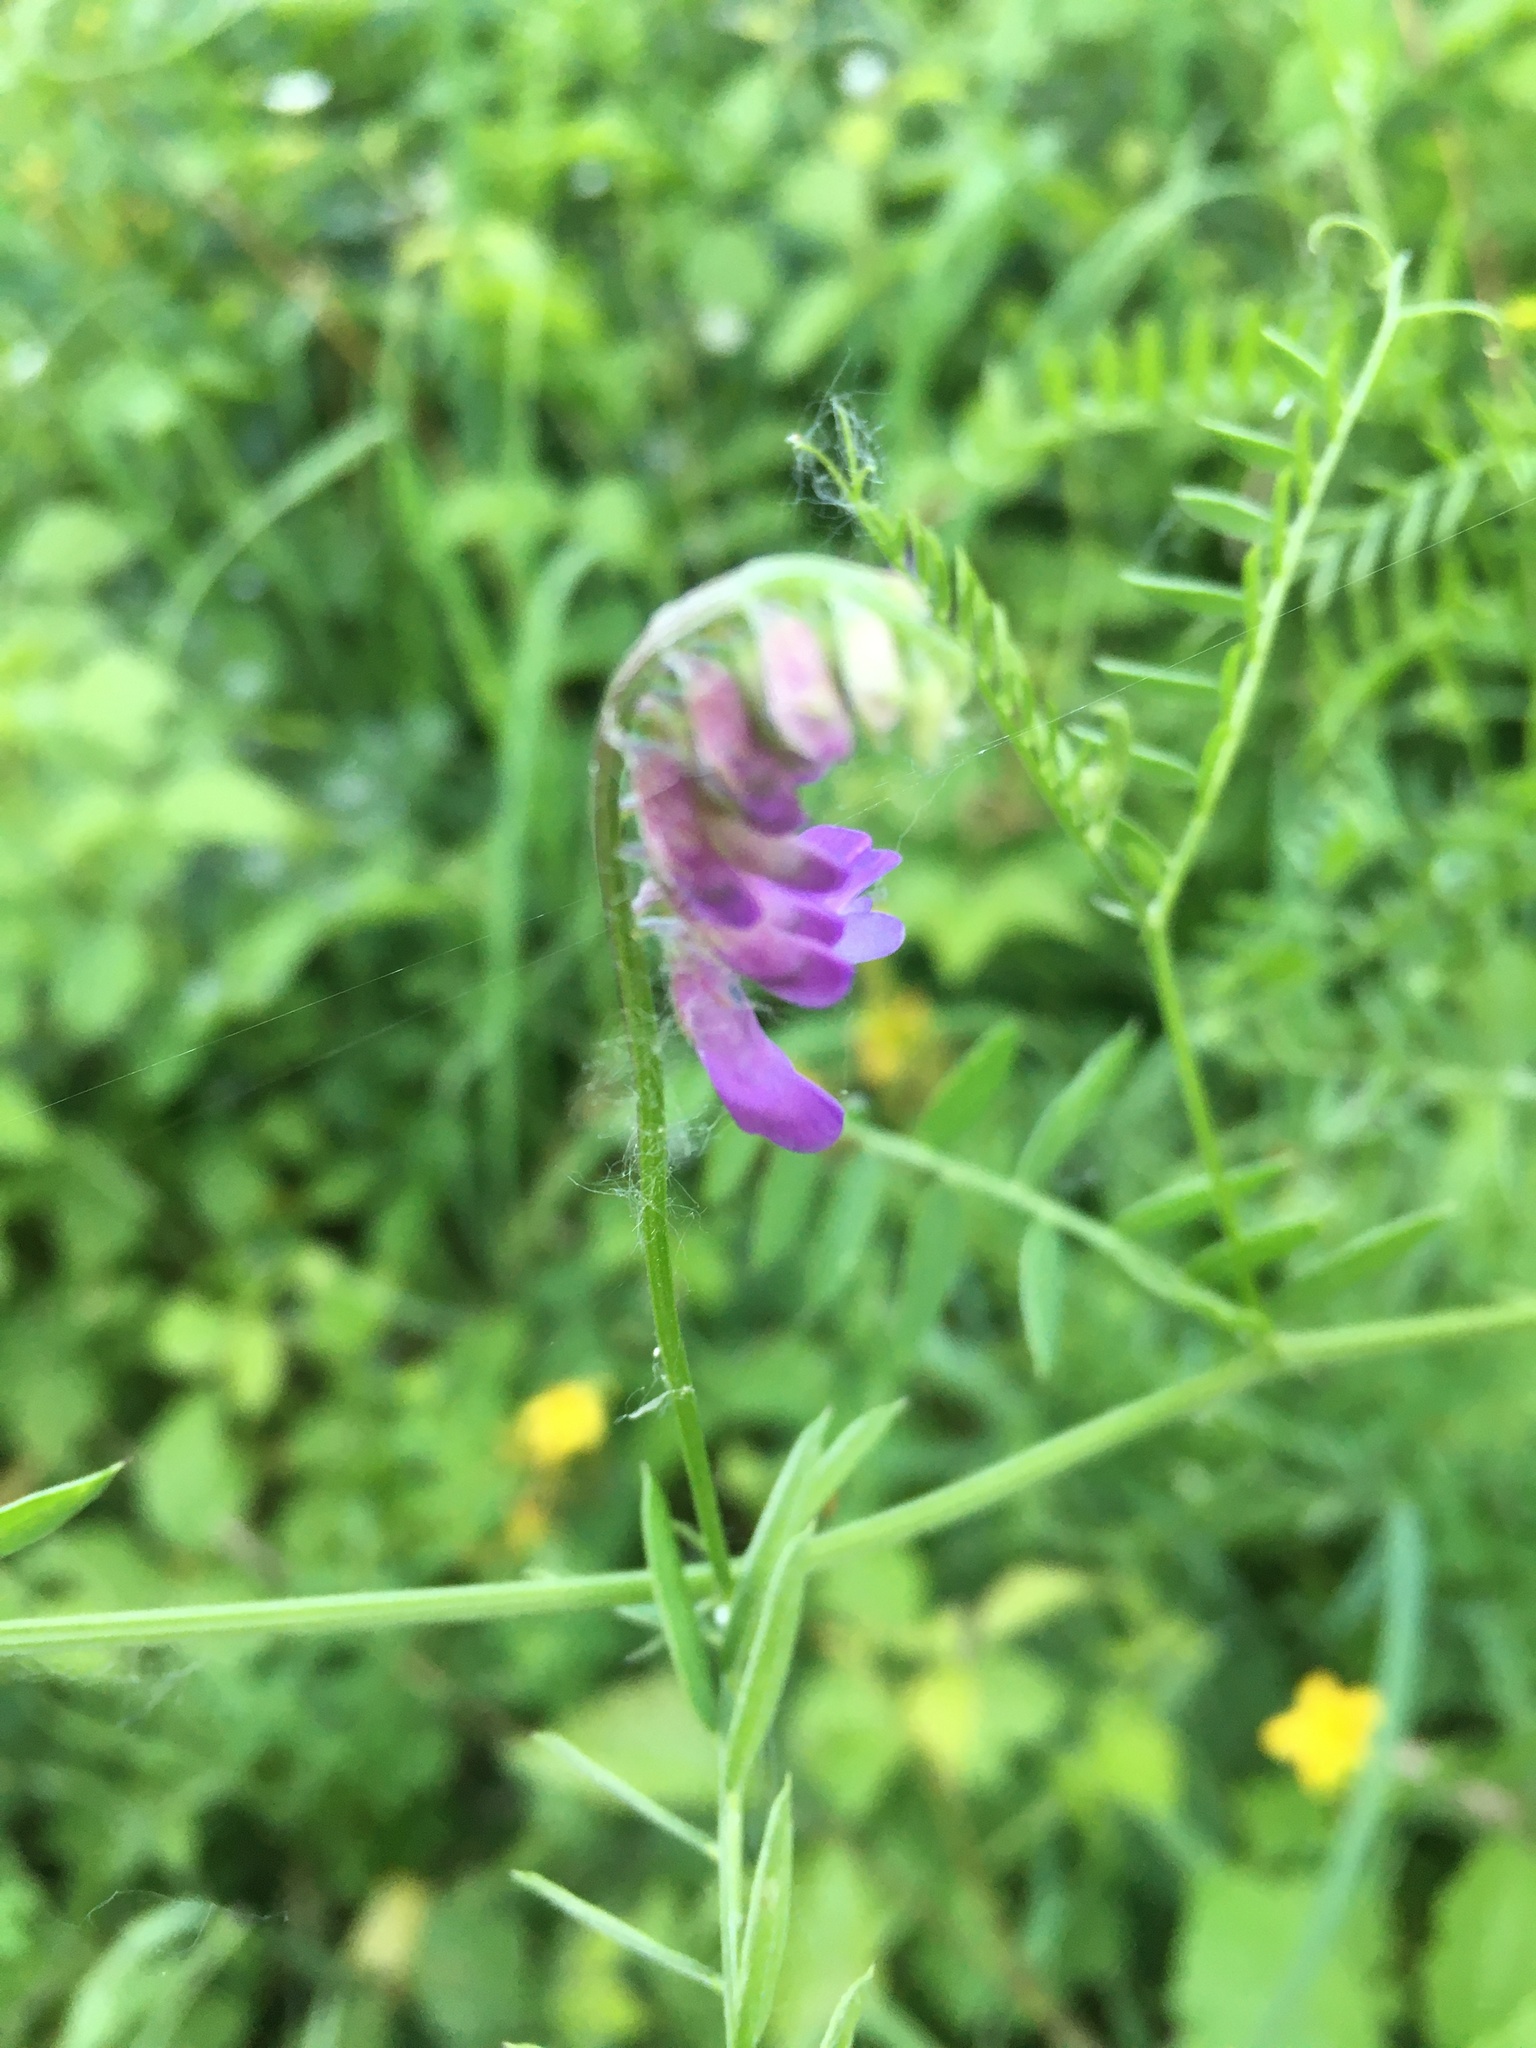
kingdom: Plantae
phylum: Tracheophyta
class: Magnoliopsida
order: Fabales
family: Fabaceae
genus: Vicia
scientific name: Vicia cracca
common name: Bird vetch
